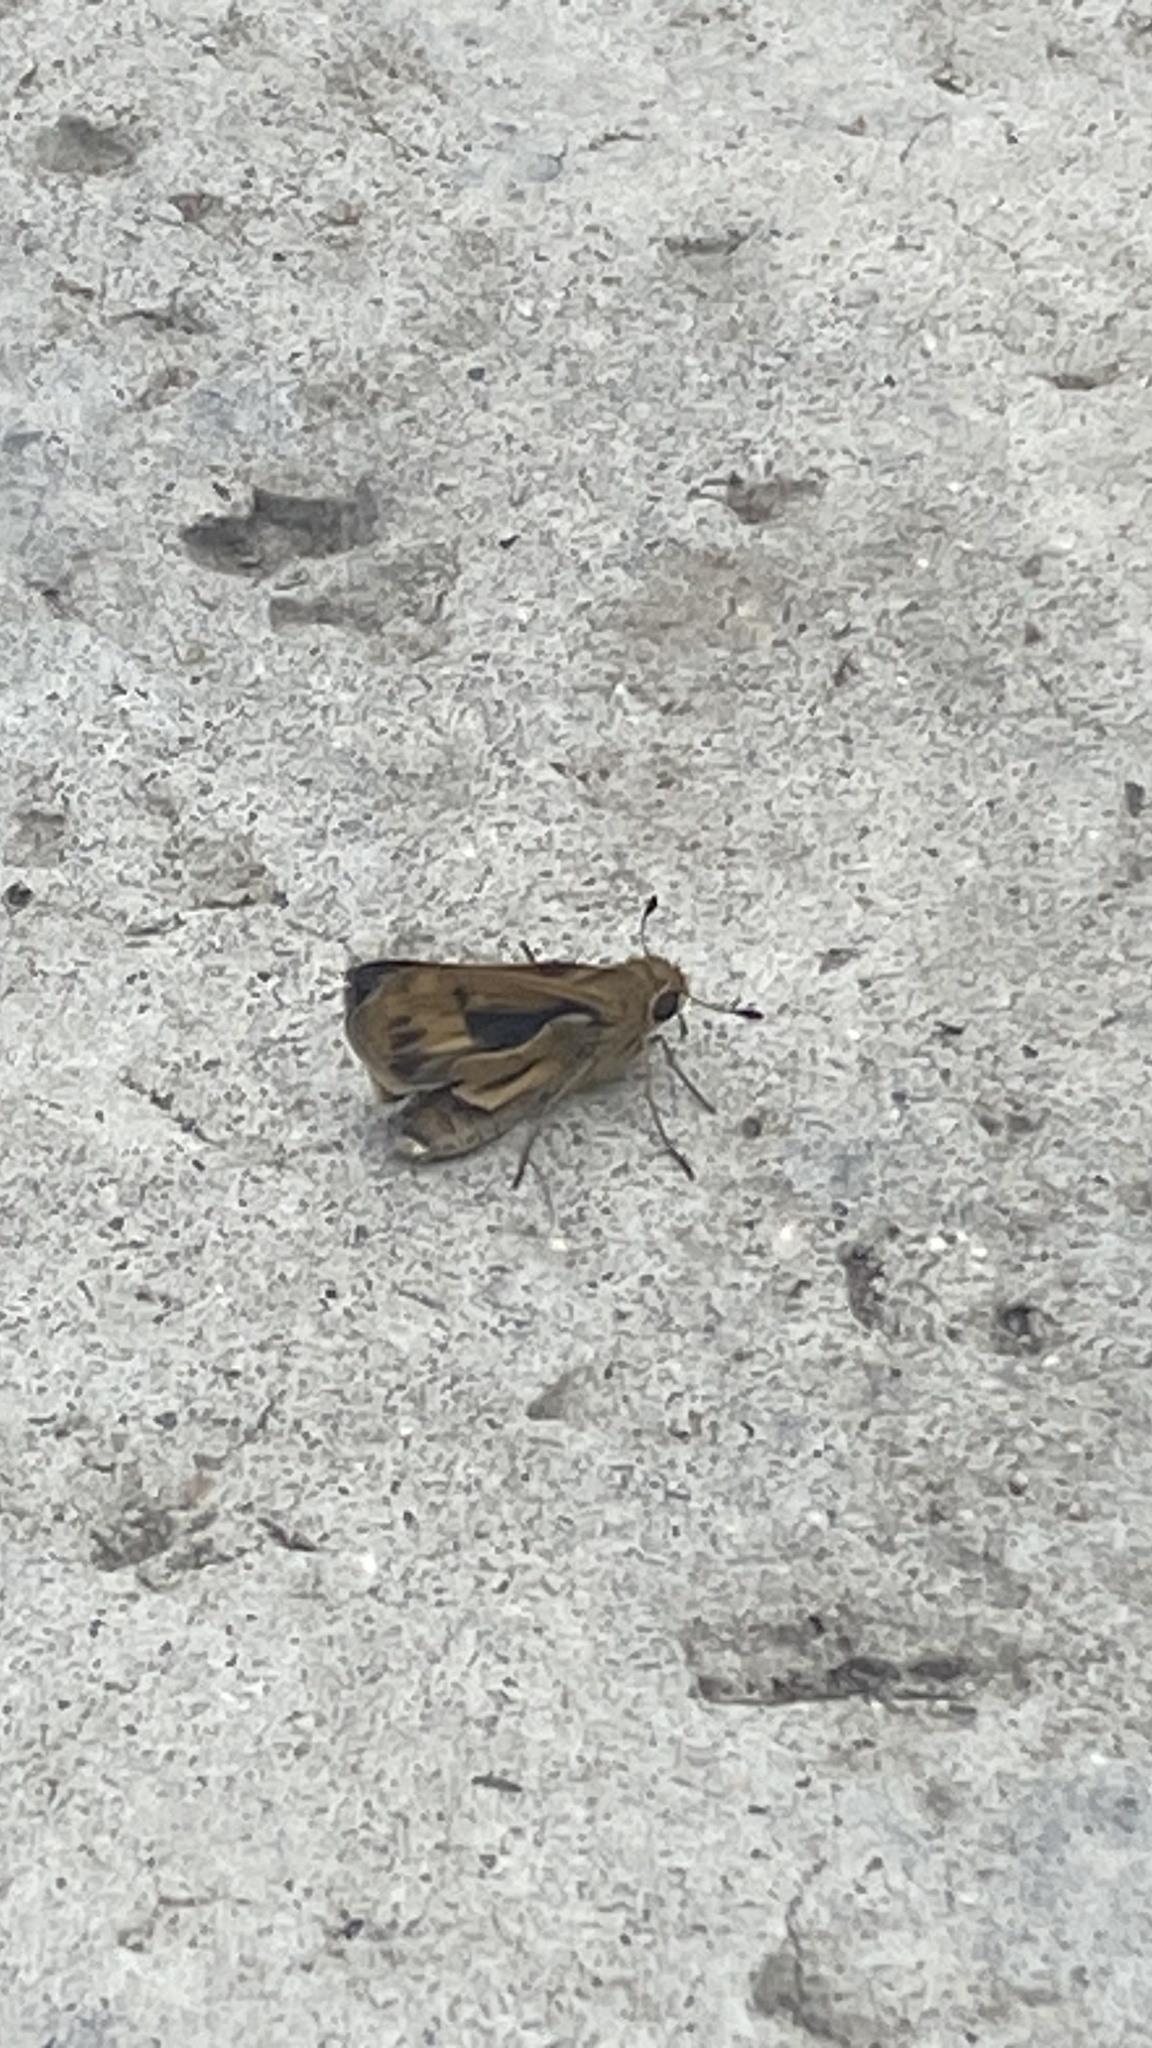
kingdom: Animalia
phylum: Arthropoda
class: Insecta
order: Lepidoptera
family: Hesperiidae
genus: Hylephila
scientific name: Hylephila phyleus
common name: Fiery skipper
